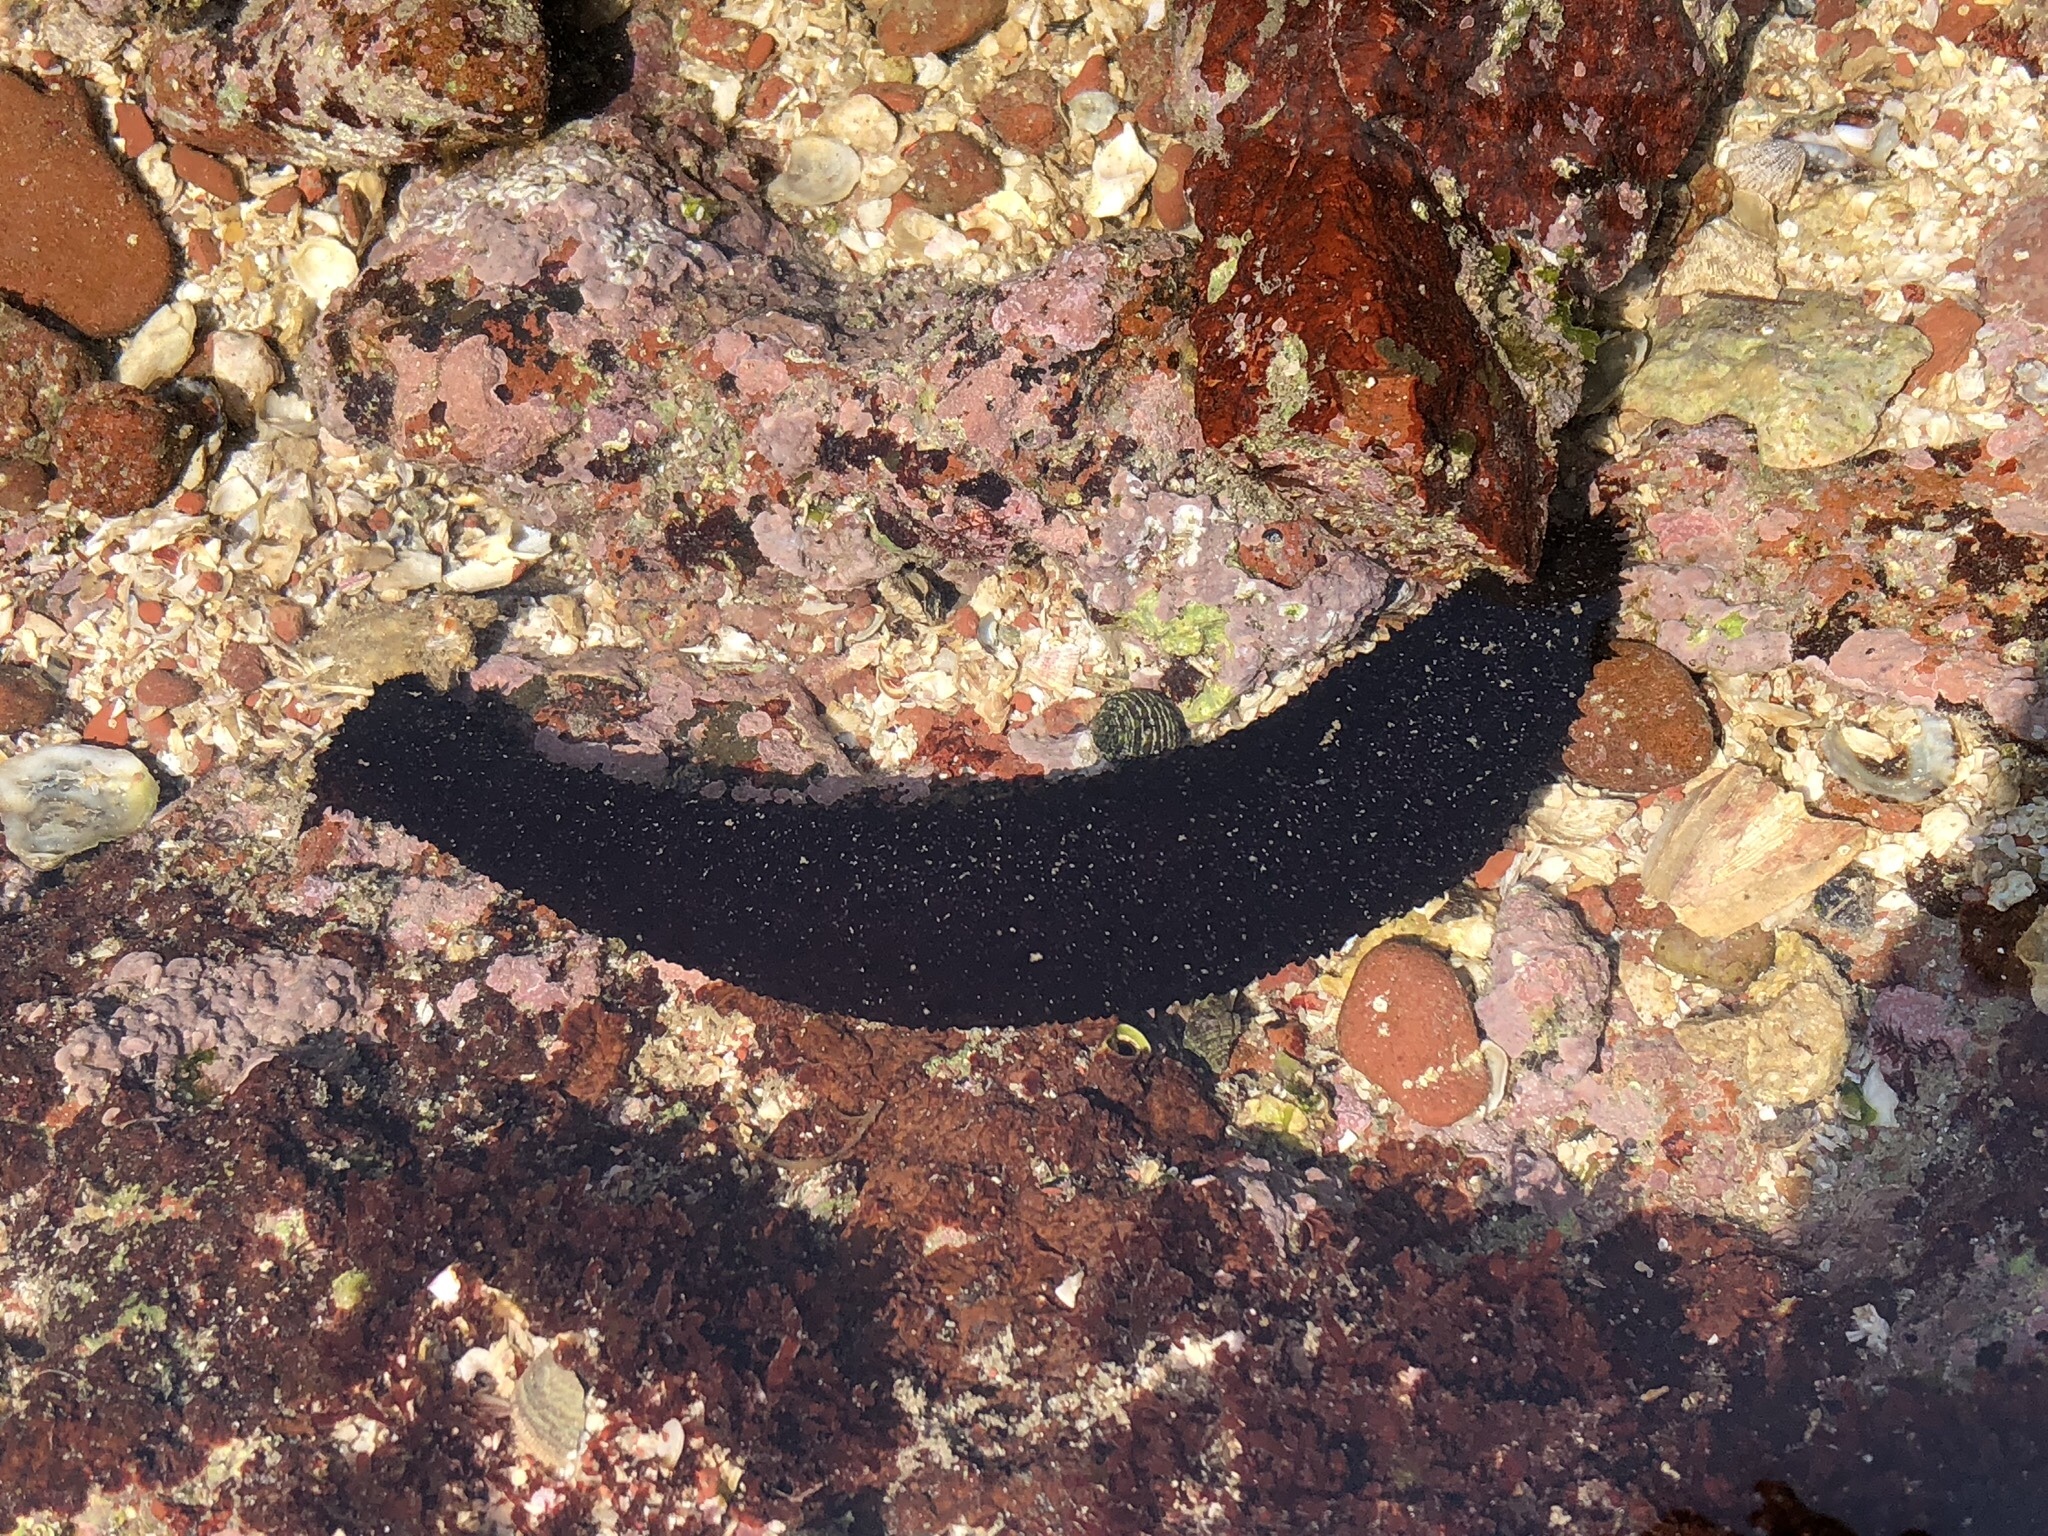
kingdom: Animalia
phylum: Echinodermata
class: Holothuroidea
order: Holothuriida
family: Holothuriidae
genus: Holothuria
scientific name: Holothuria leucospilota
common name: White thread fish
